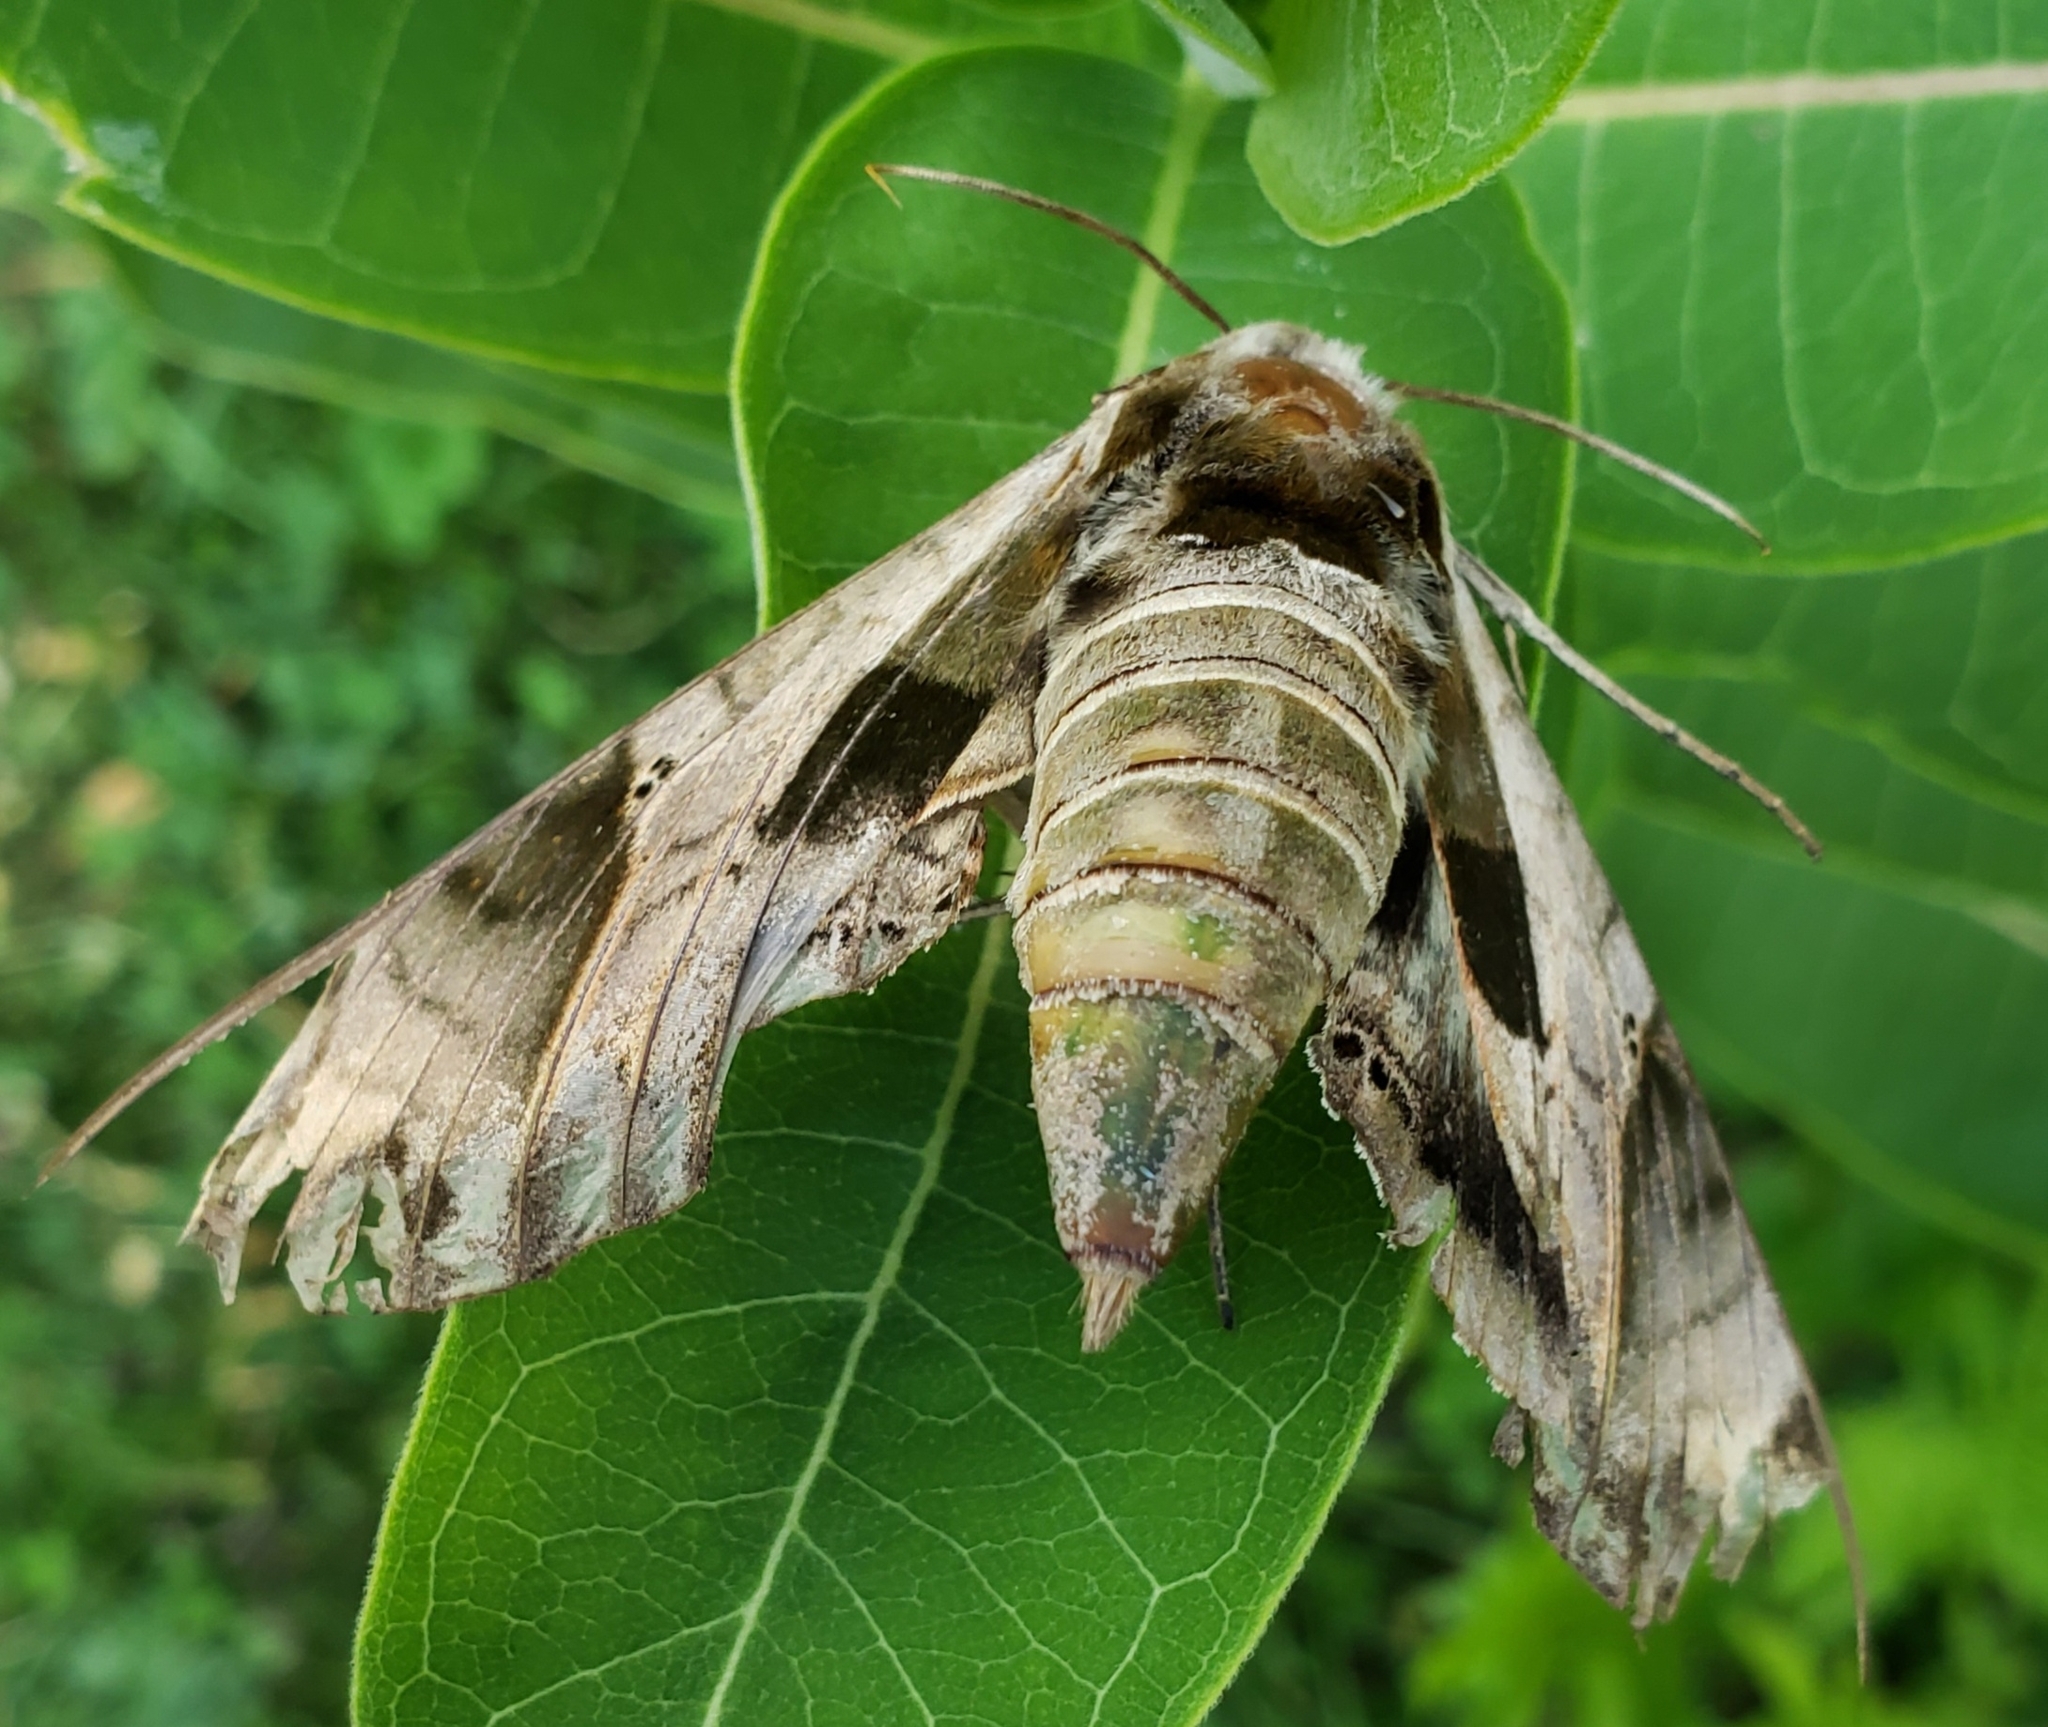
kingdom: Animalia
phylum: Arthropoda
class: Insecta
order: Lepidoptera
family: Sphingidae
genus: Eumorpha
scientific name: Eumorpha pandorus
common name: Pandora sphinx
